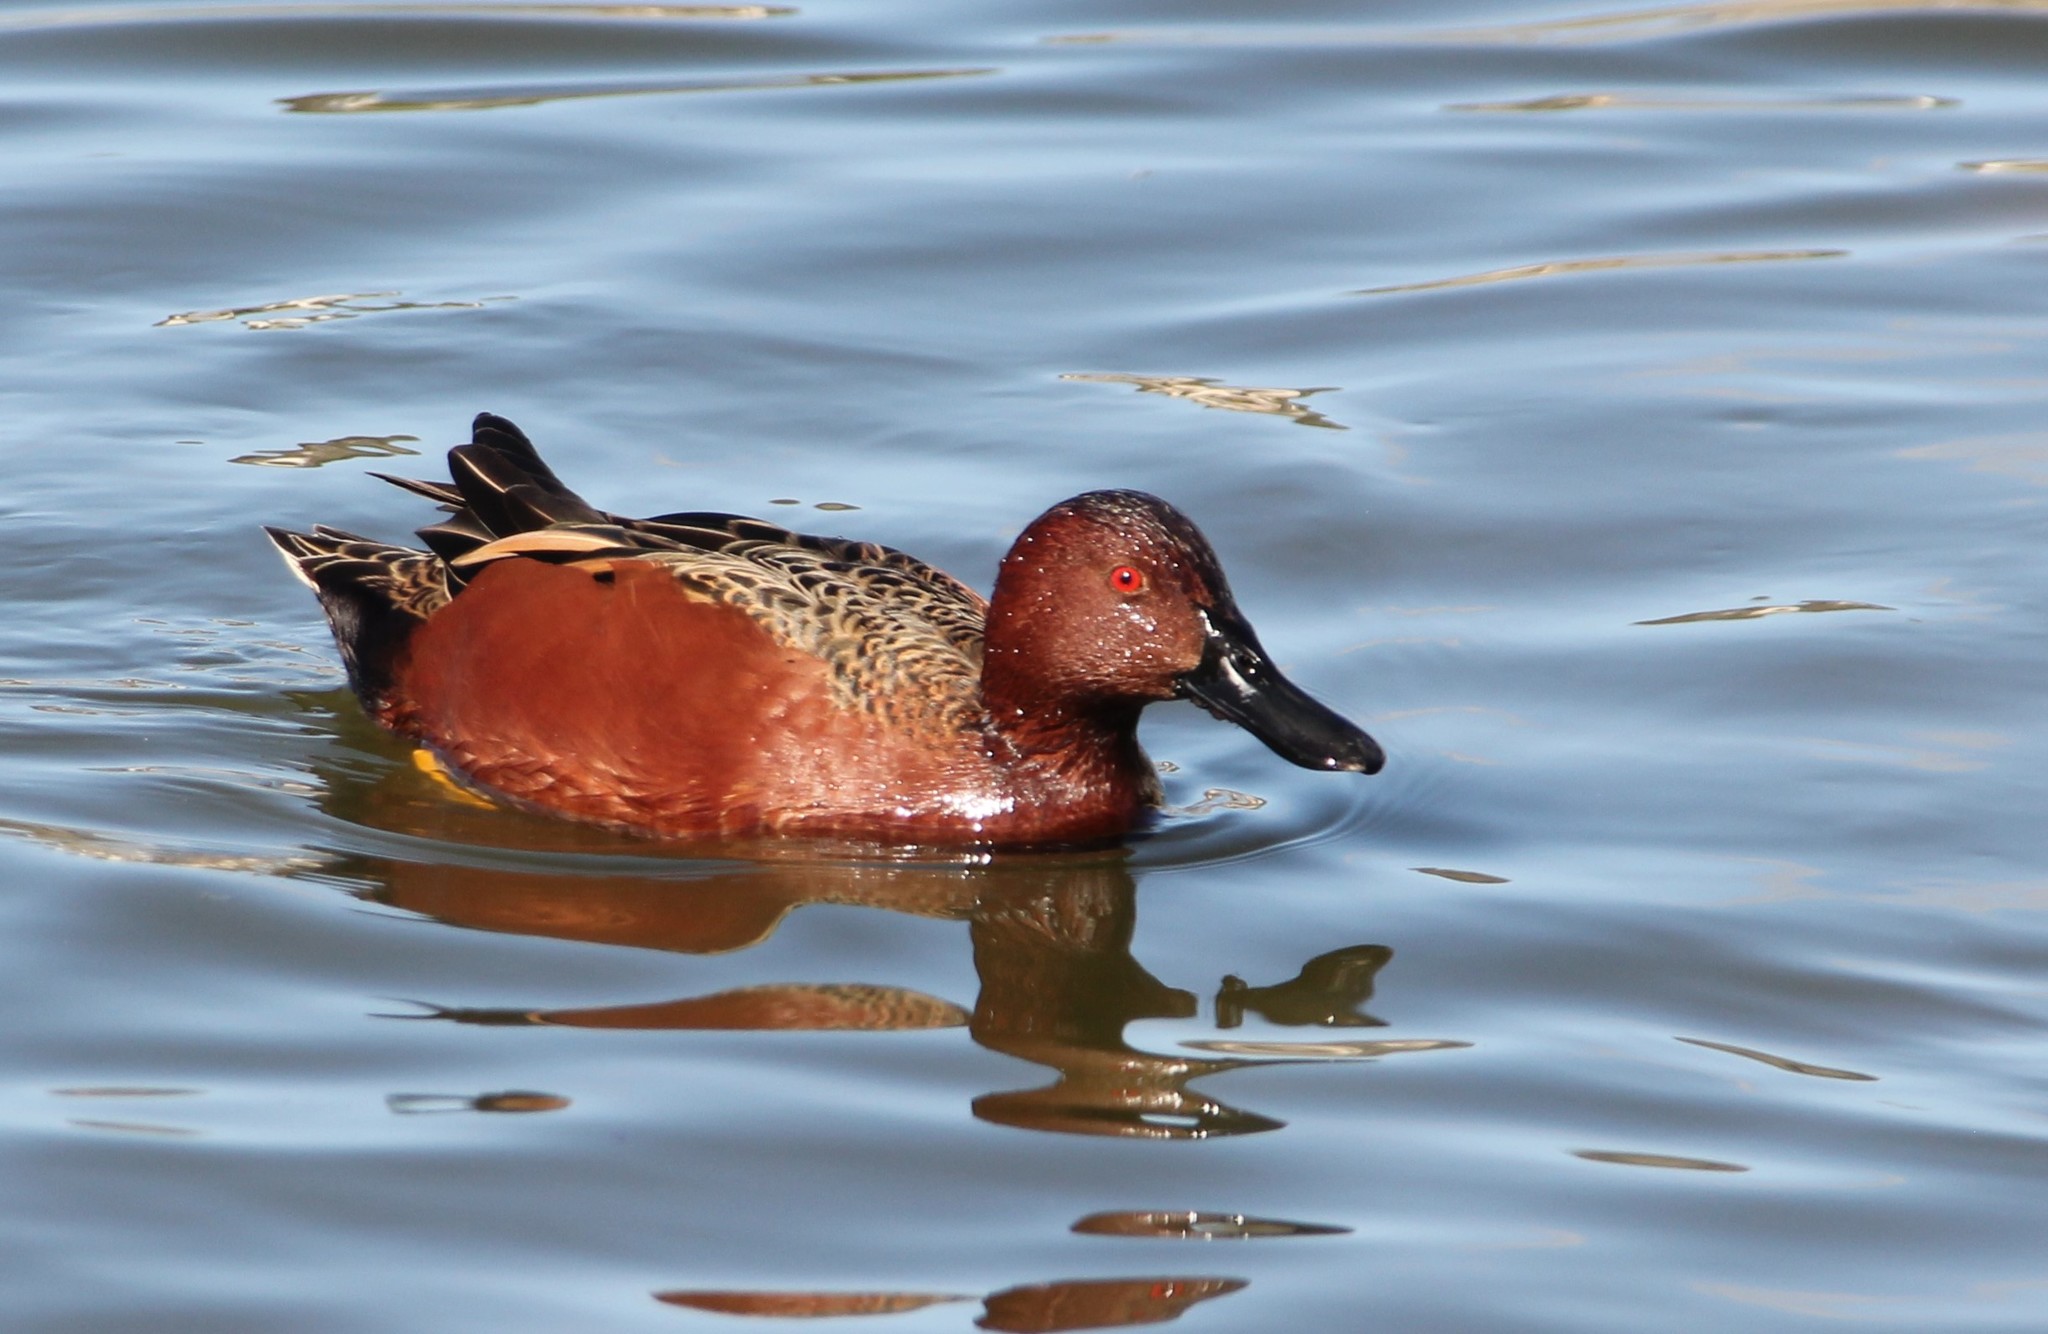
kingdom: Animalia
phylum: Chordata
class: Aves
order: Anseriformes
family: Anatidae
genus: Spatula
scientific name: Spatula cyanoptera
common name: Cinnamon teal
